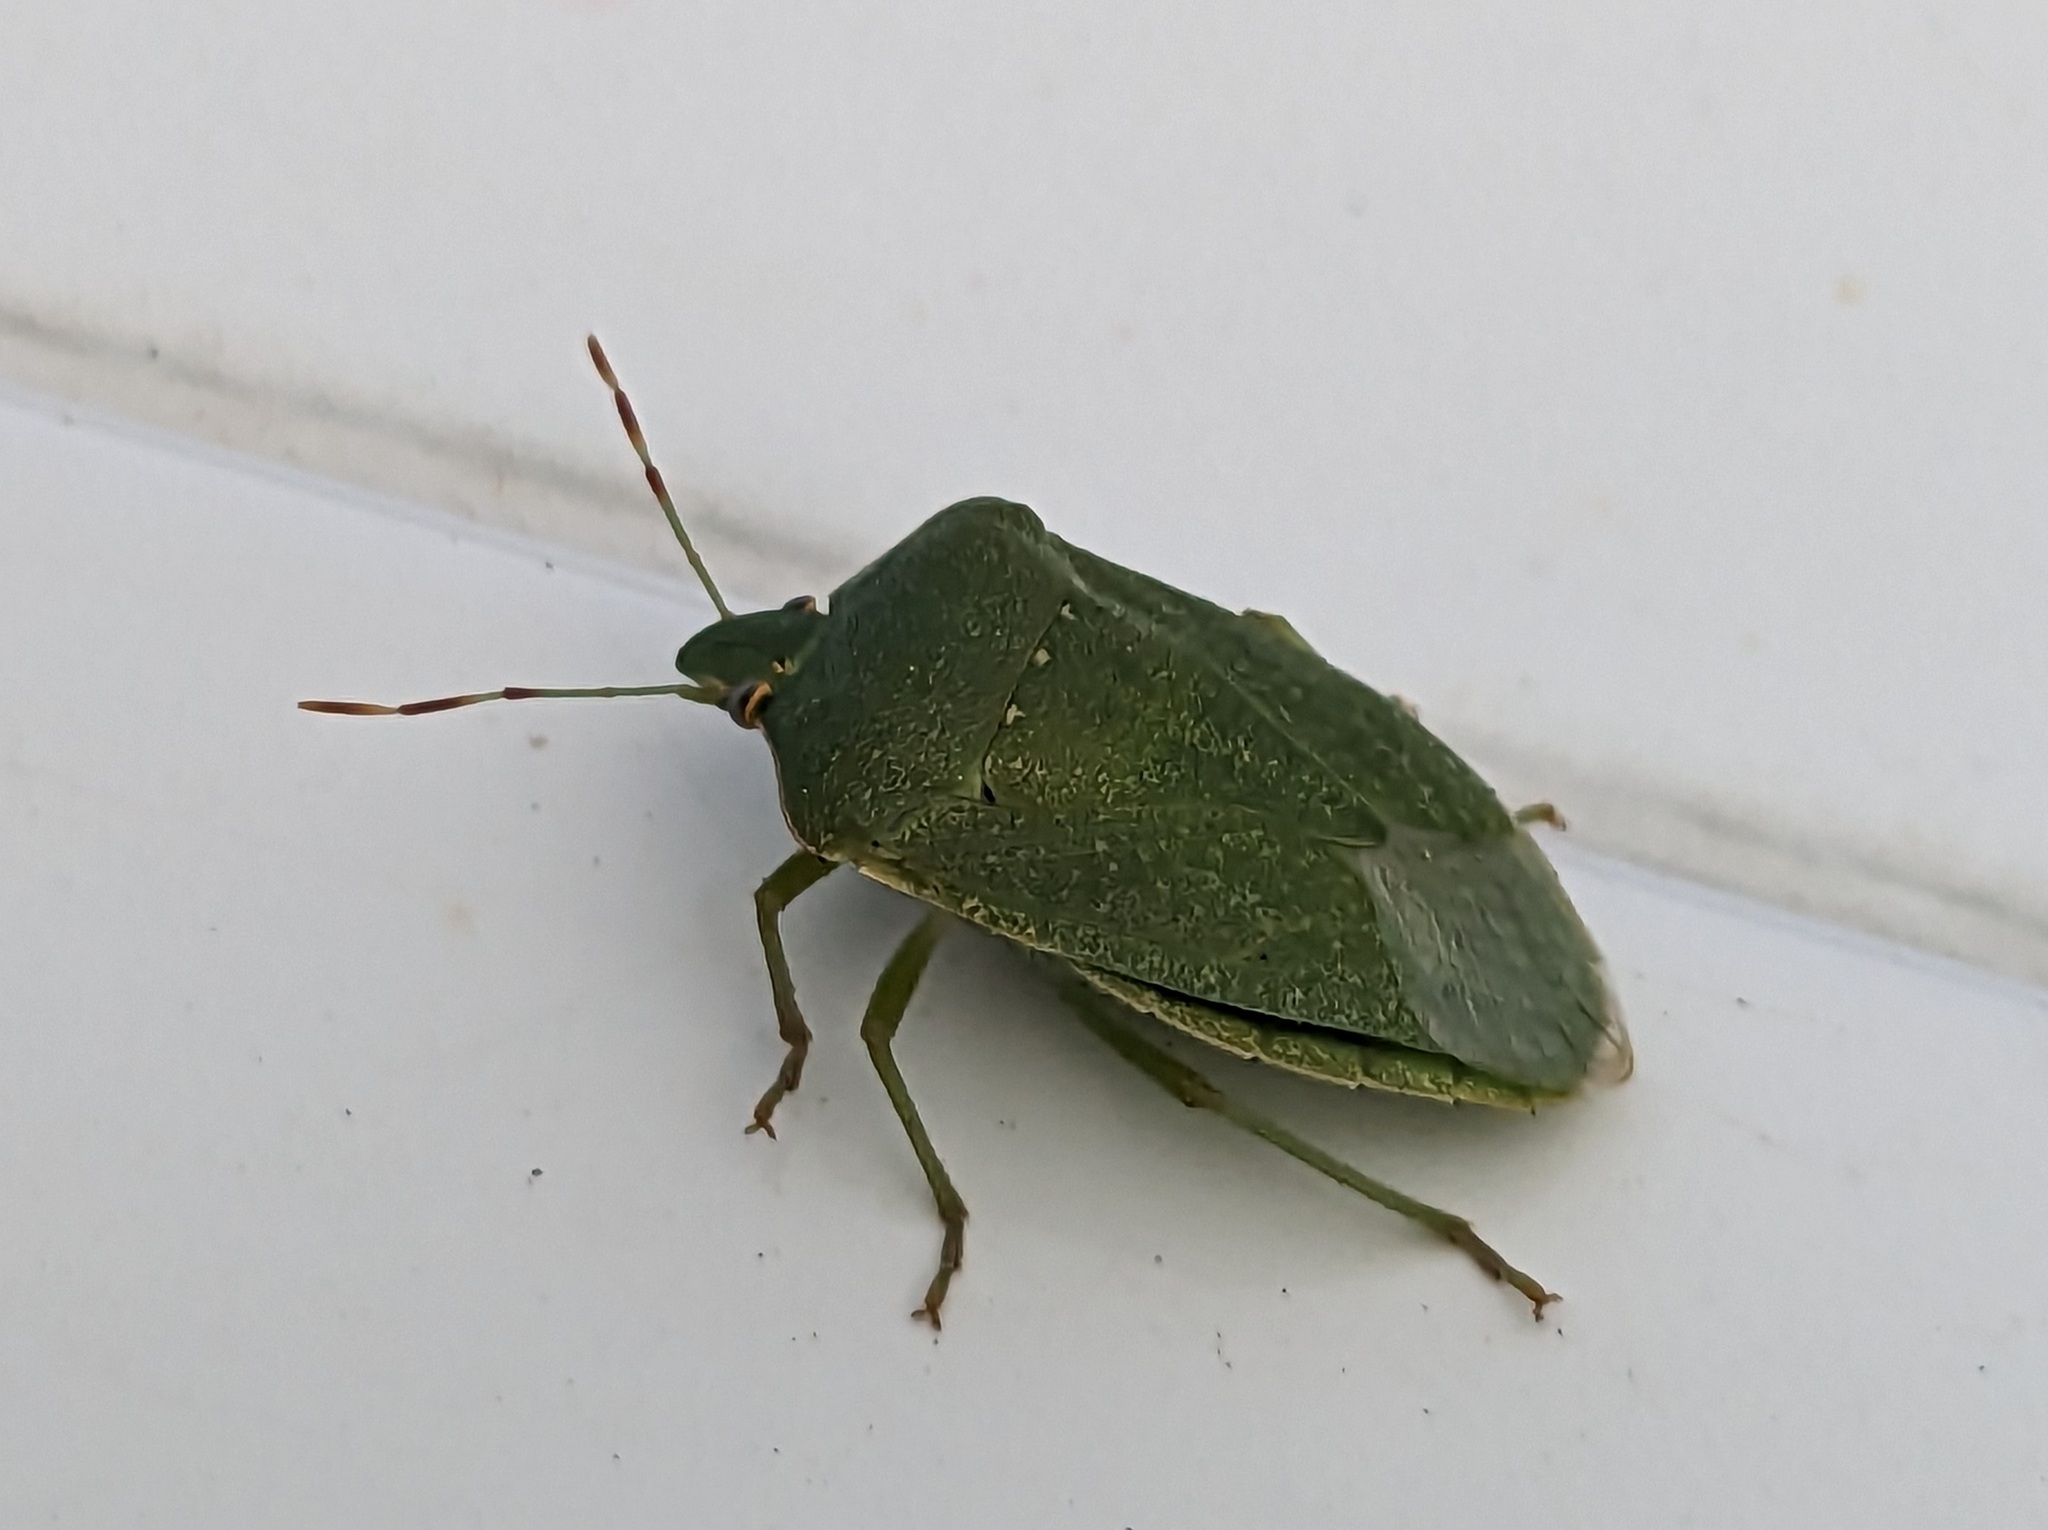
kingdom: Animalia
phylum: Arthropoda
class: Insecta
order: Hemiptera
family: Pentatomidae
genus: Nezara
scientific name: Nezara viridula
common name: Southern green stink bug
